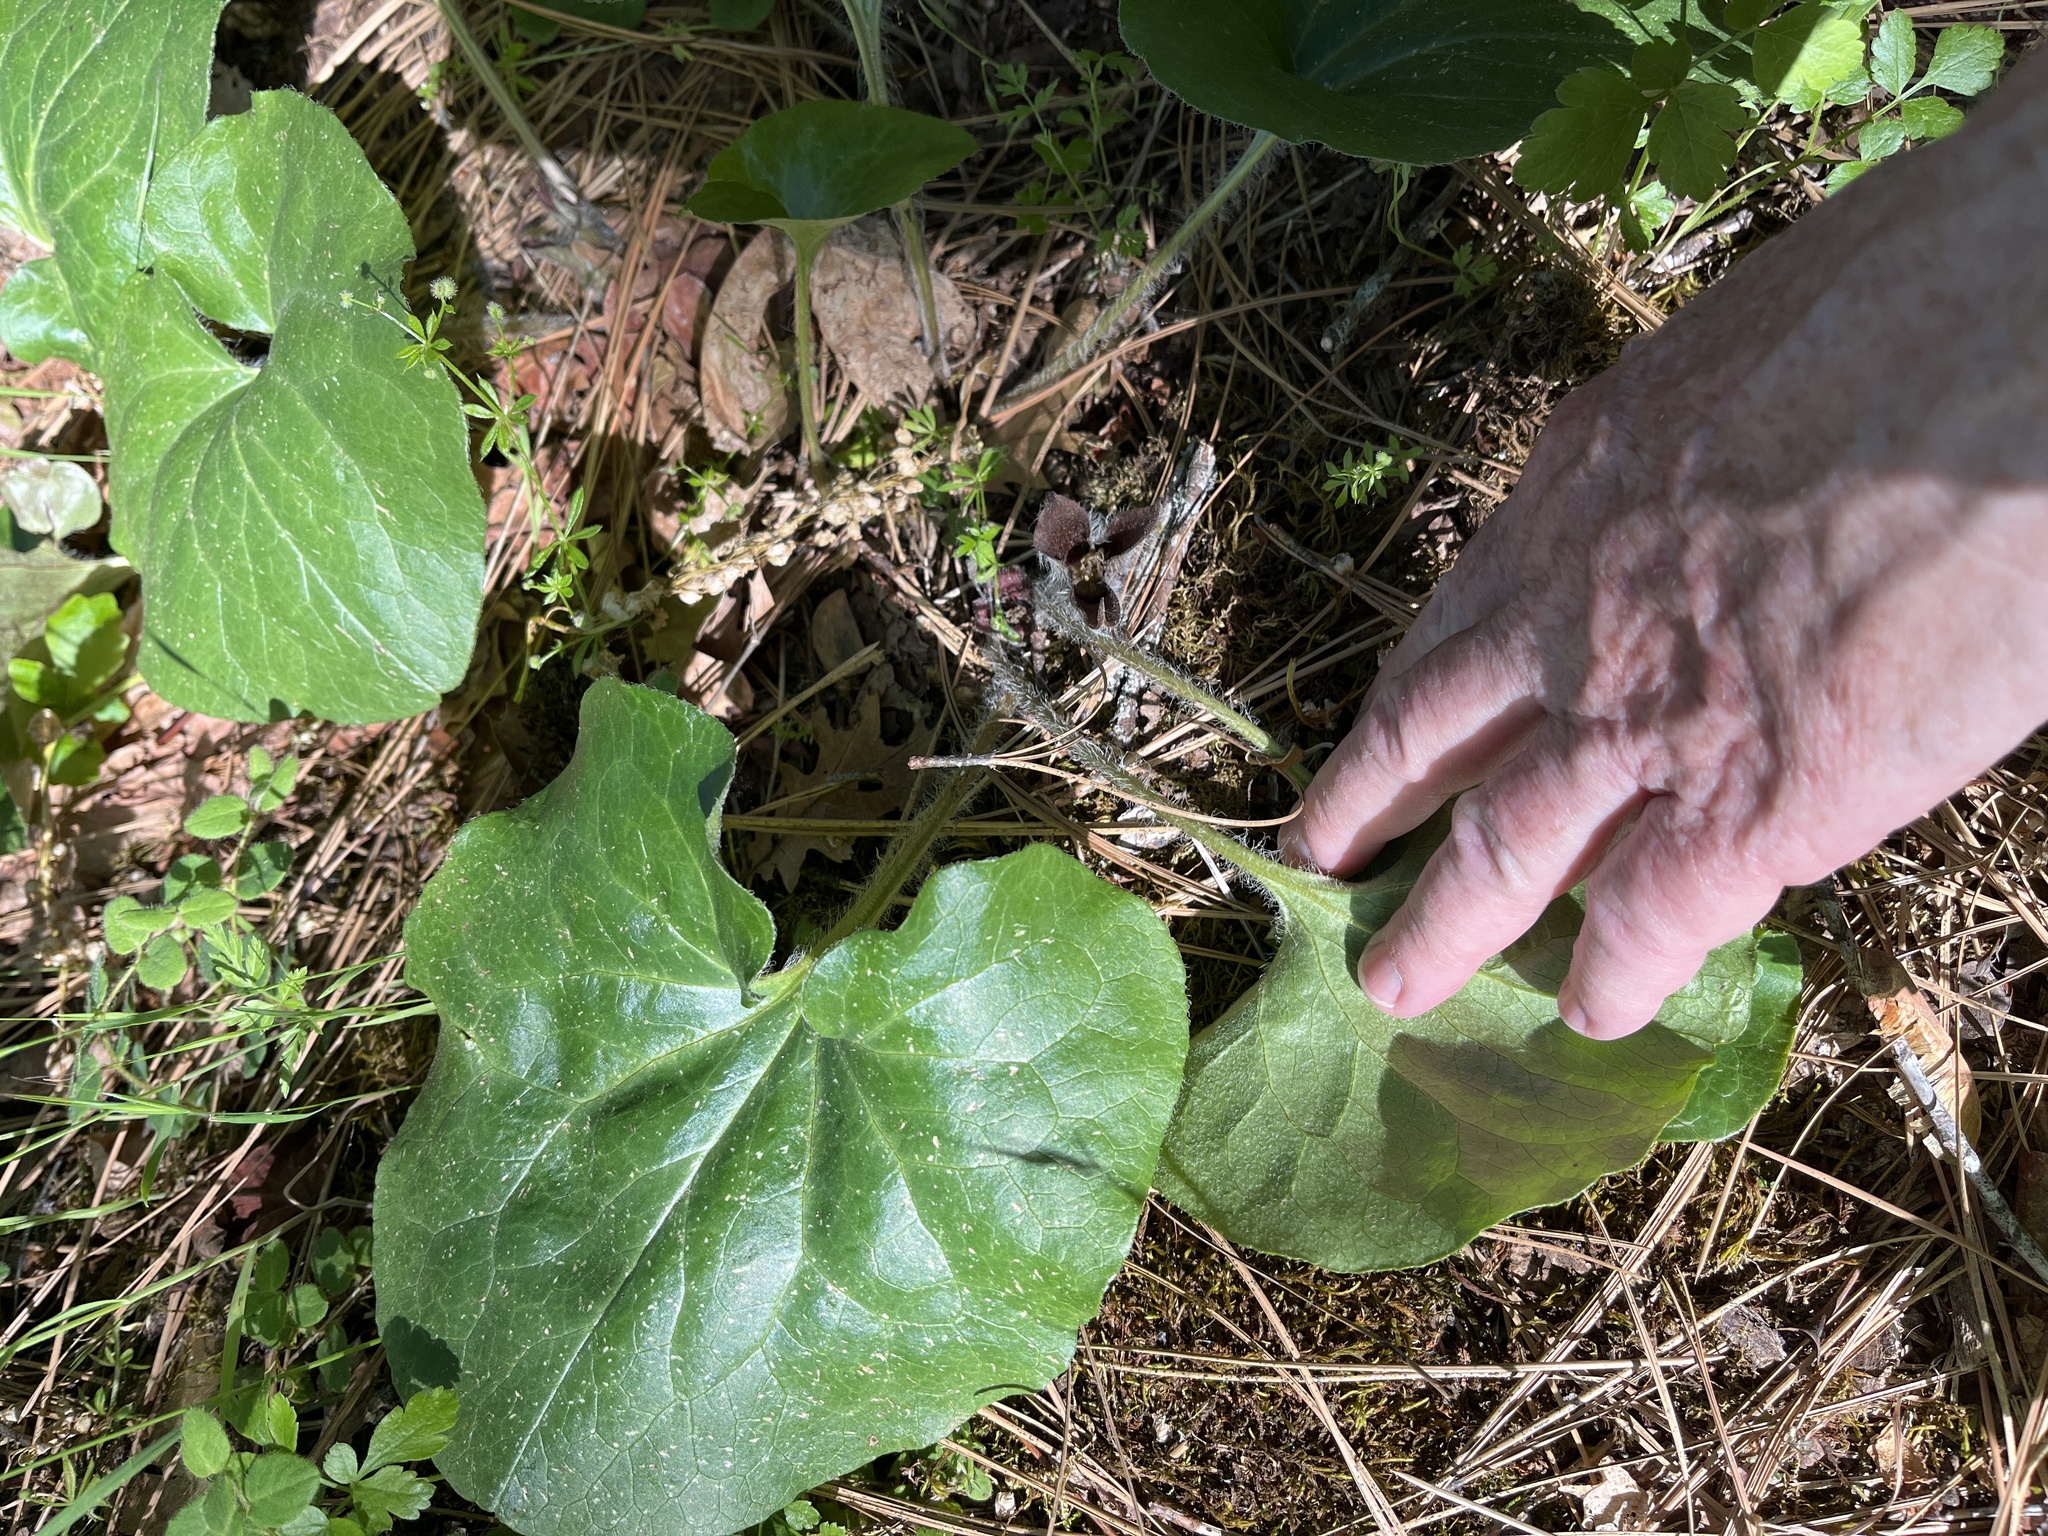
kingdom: Plantae
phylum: Tracheophyta
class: Magnoliopsida
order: Piperales
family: Aristolochiaceae
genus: Asarum
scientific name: Asarum hartwegii
